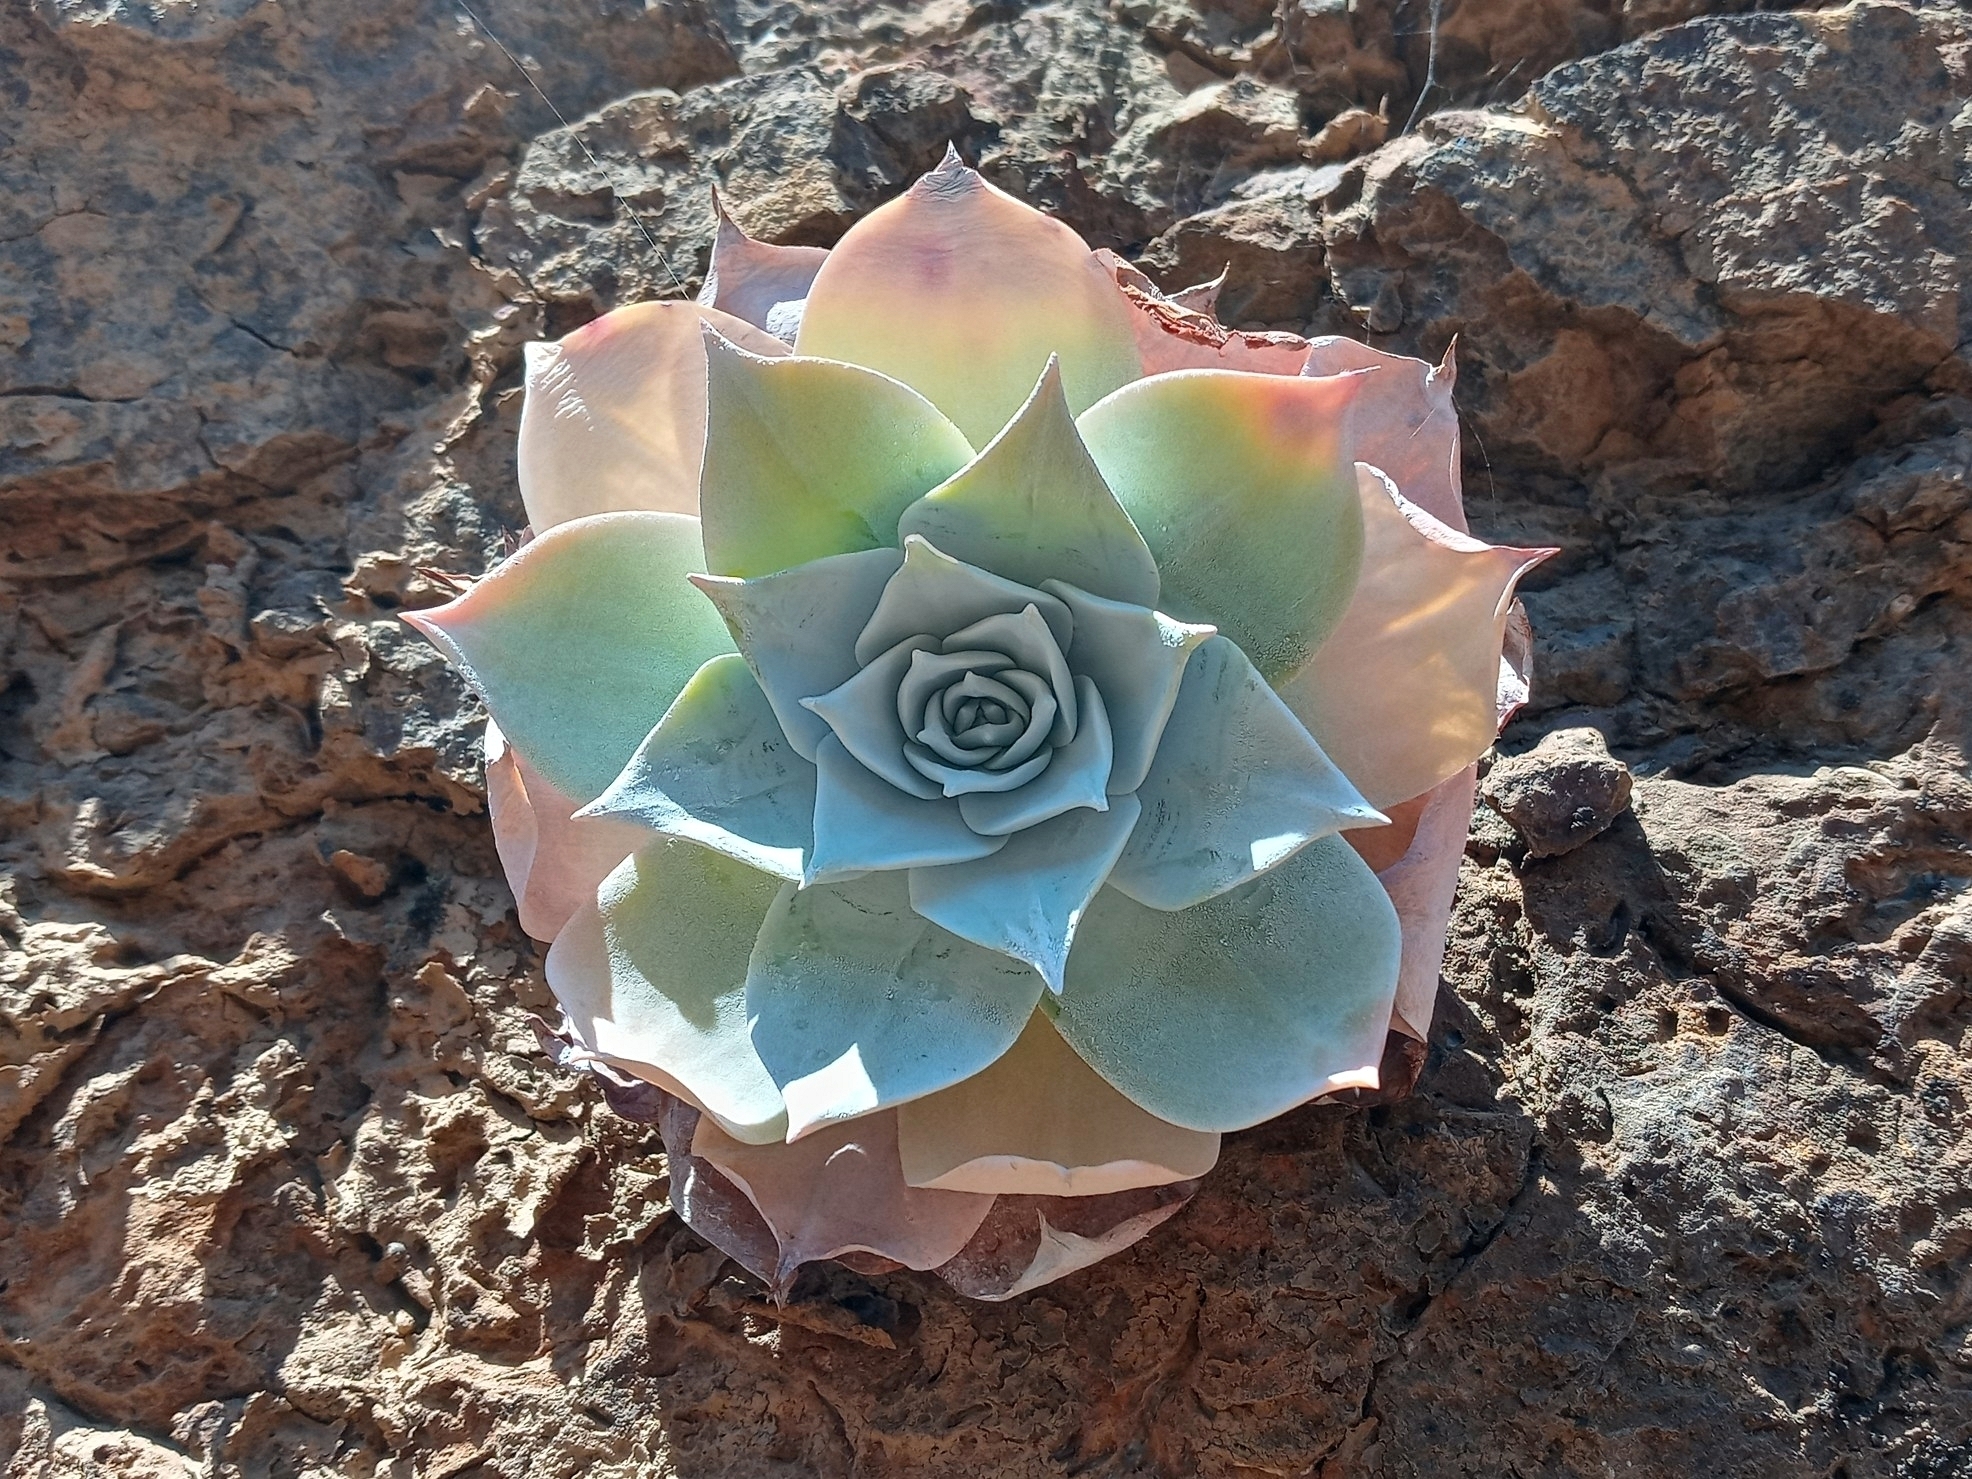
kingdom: Plantae
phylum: Tracheophyta
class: Magnoliopsida
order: Saxifragales
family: Crassulaceae
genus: Dudleya
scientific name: Dudleya pulverulenta
